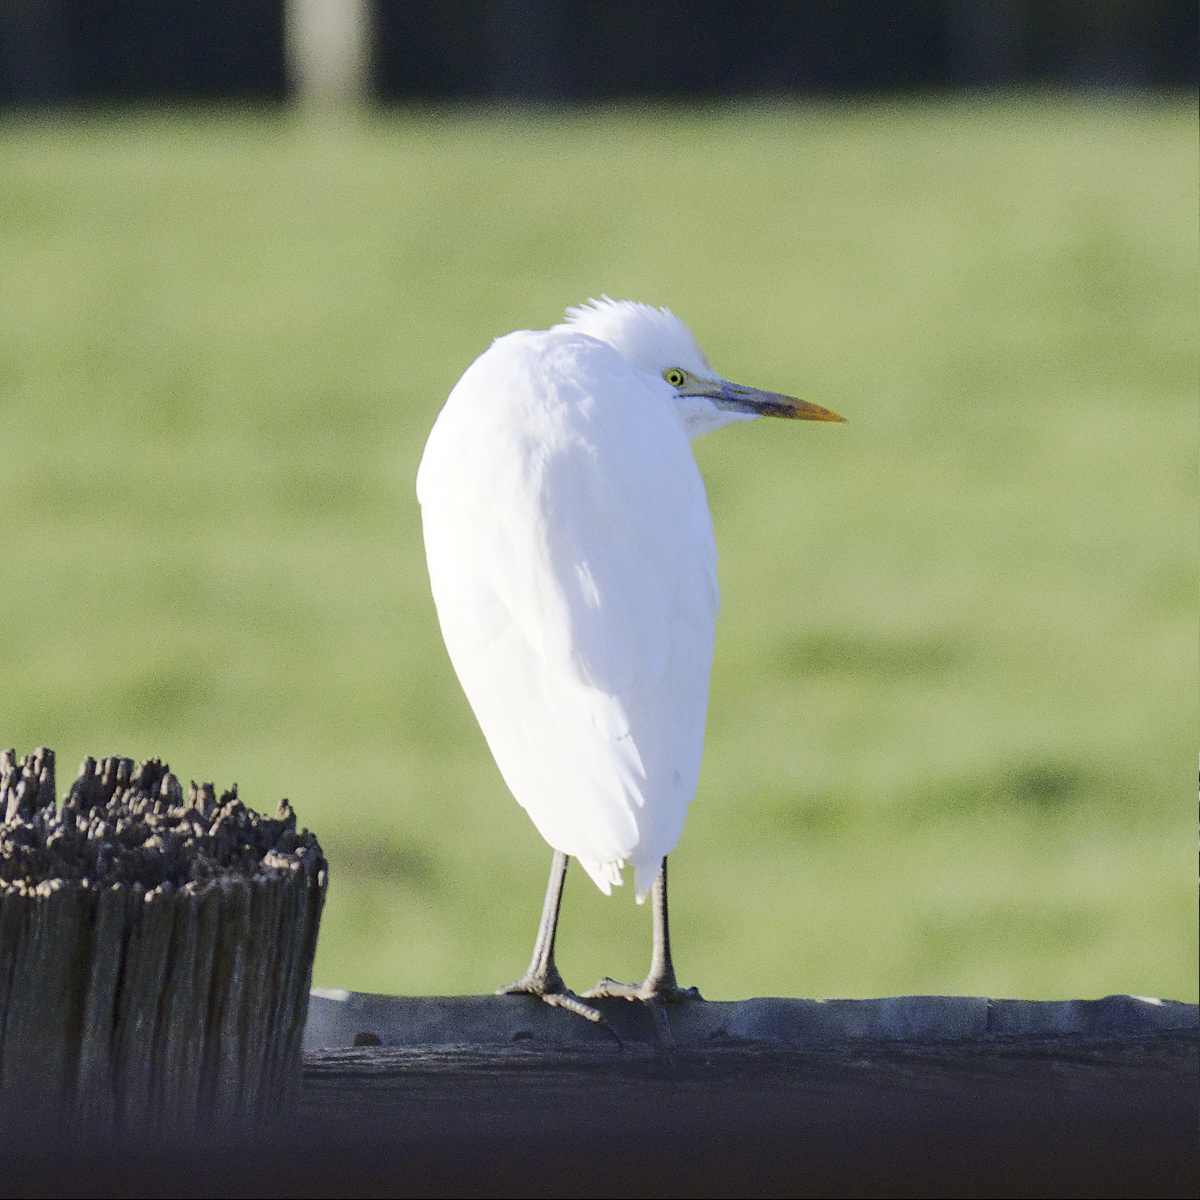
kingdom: Animalia
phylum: Chordata
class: Aves
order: Pelecaniformes
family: Ardeidae
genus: Bubulcus
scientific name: Bubulcus coromandus
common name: Eastern cattle egret
